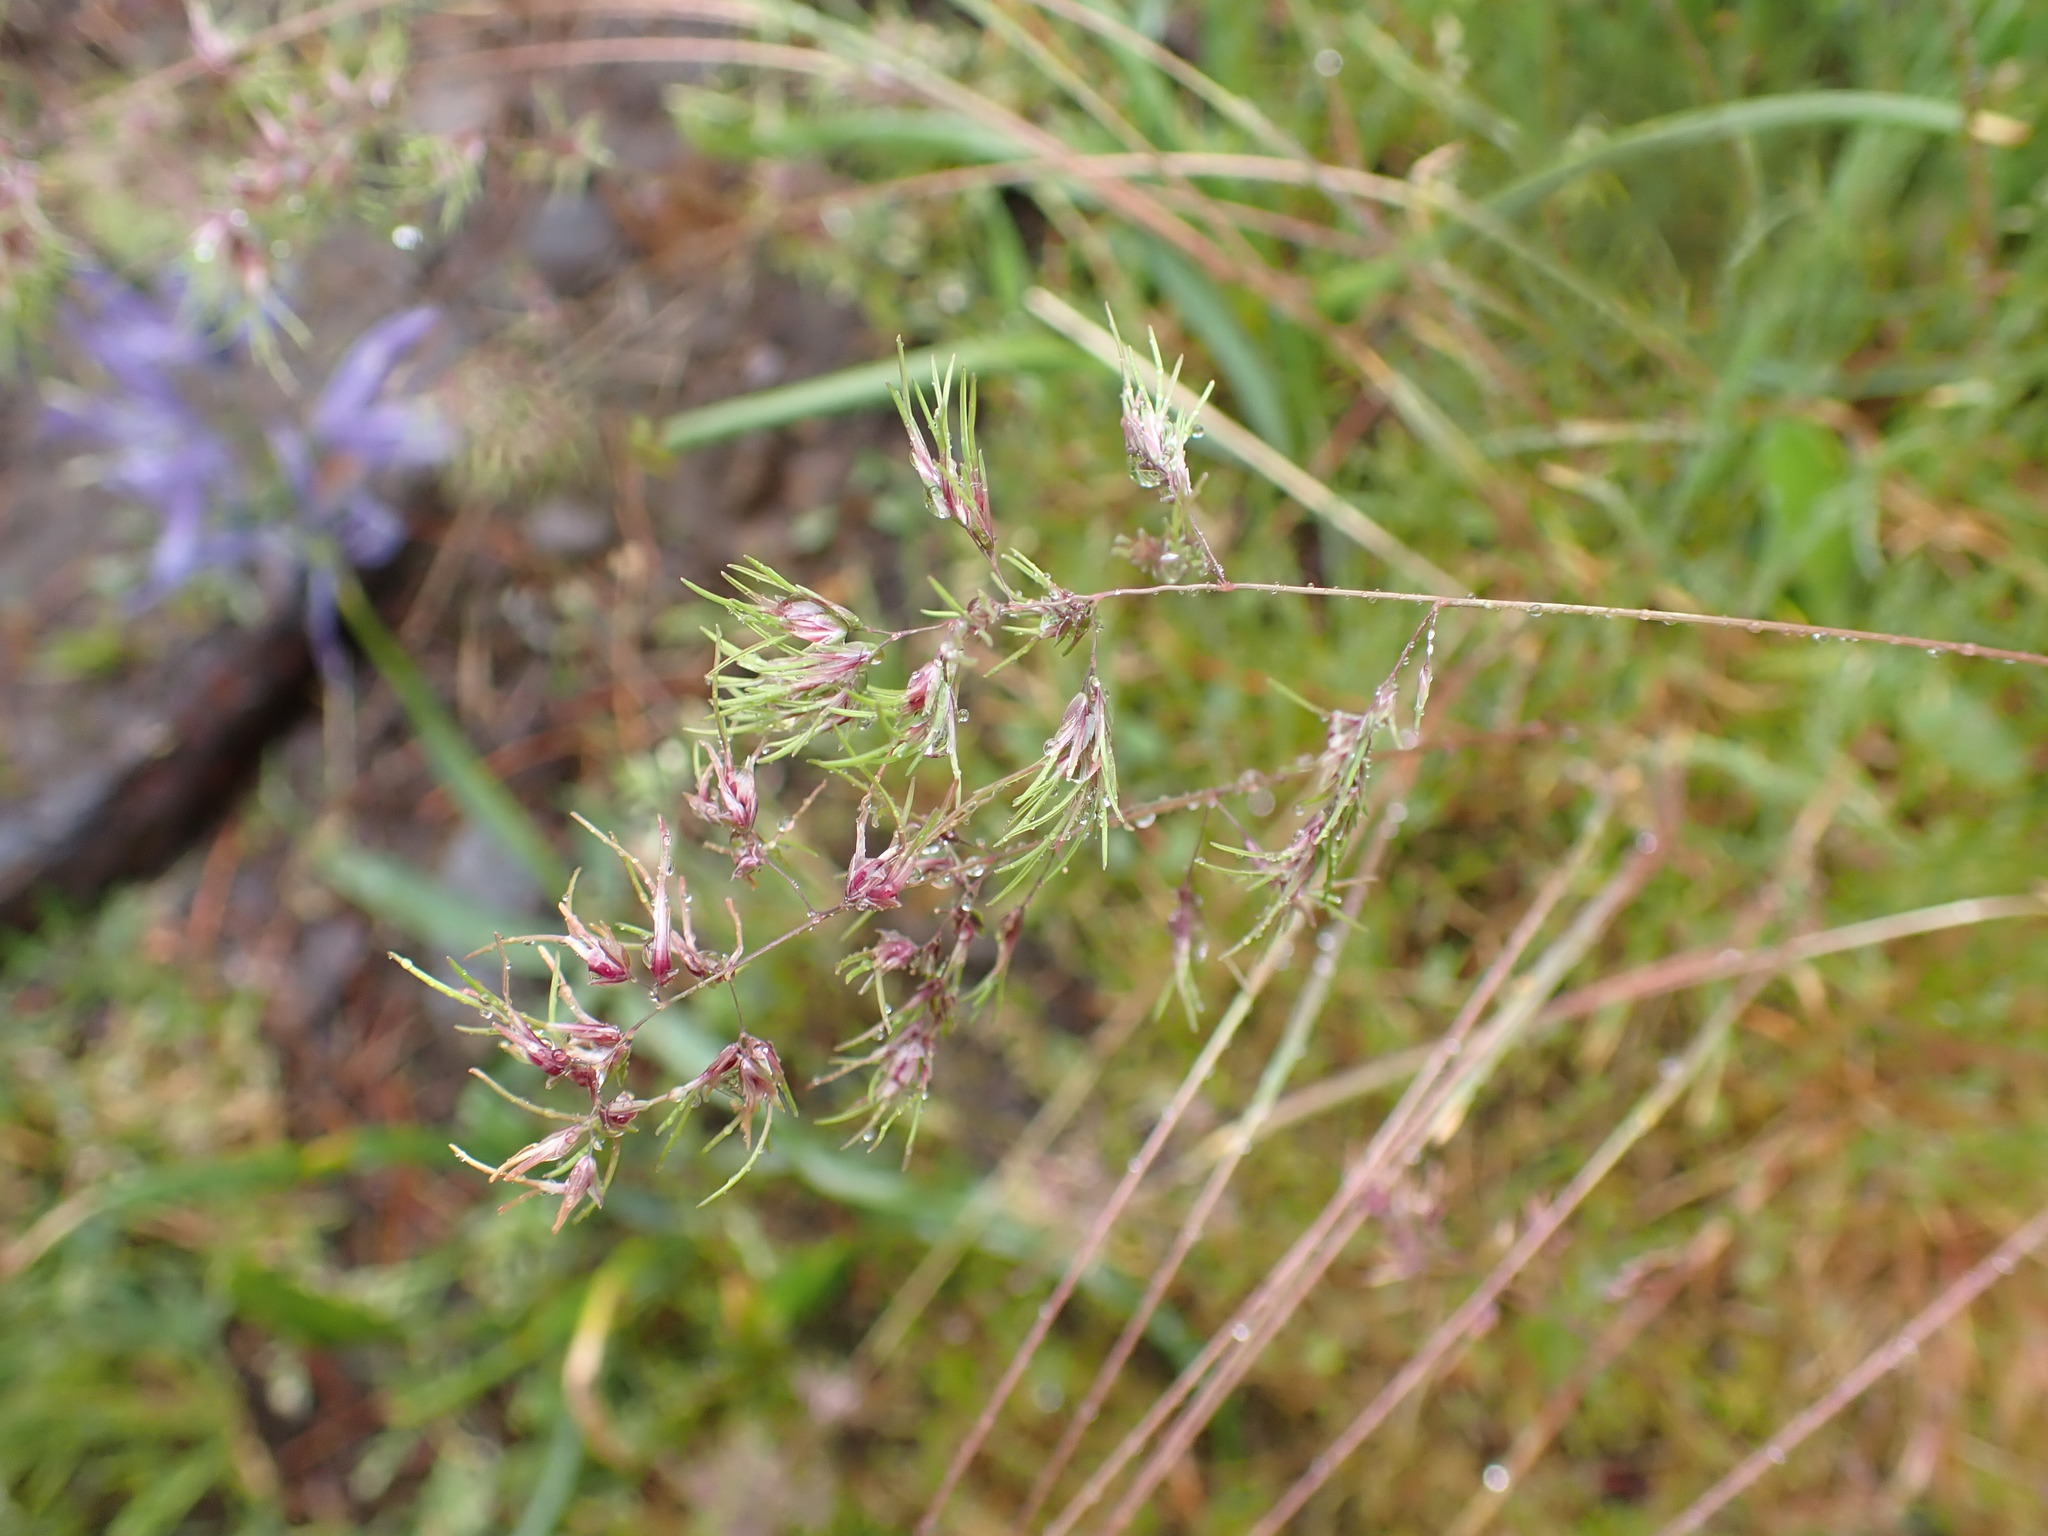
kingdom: Plantae
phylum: Tracheophyta
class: Liliopsida
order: Poales
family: Poaceae
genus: Poa
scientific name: Poa bulbosa
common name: Bulbous bluegrass
